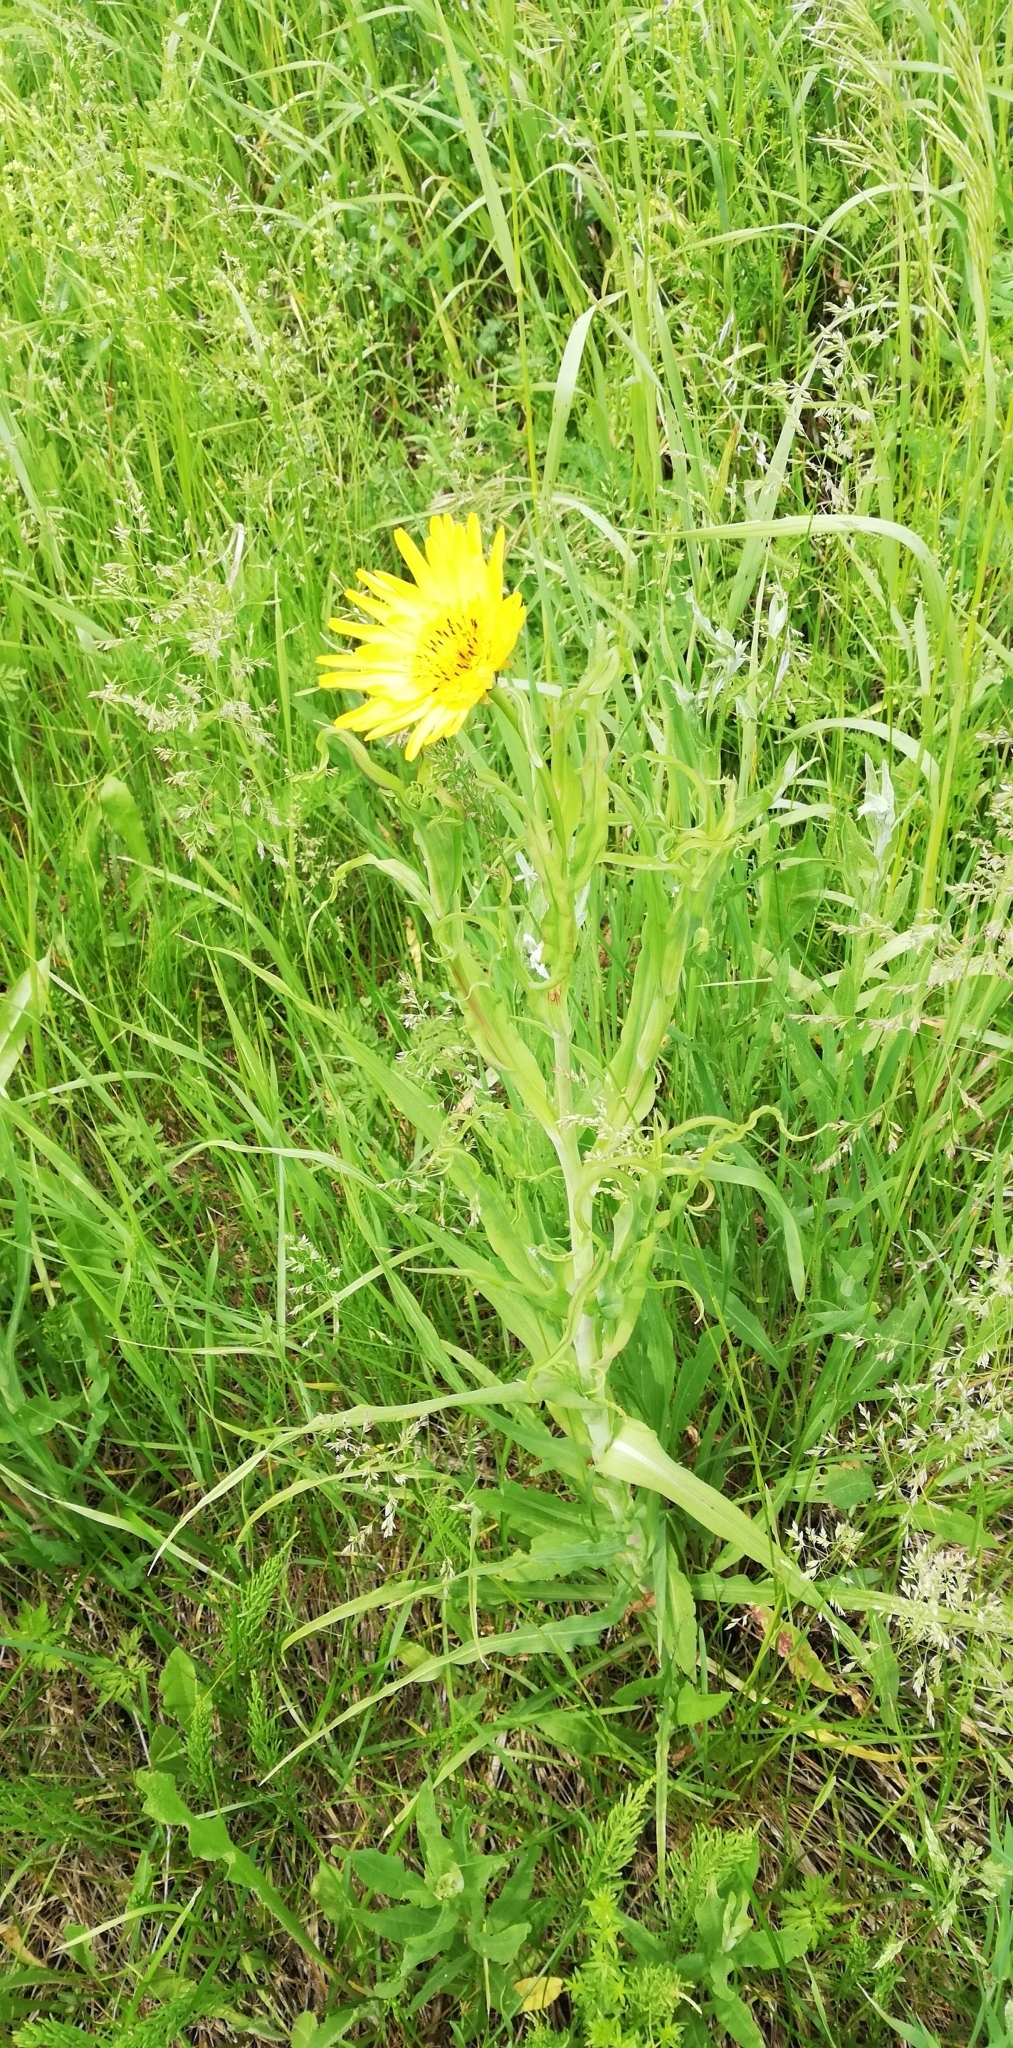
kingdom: Plantae
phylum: Tracheophyta
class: Magnoliopsida
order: Asterales
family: Asteraceae
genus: Tragopogon
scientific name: Tragopogon orientalis
